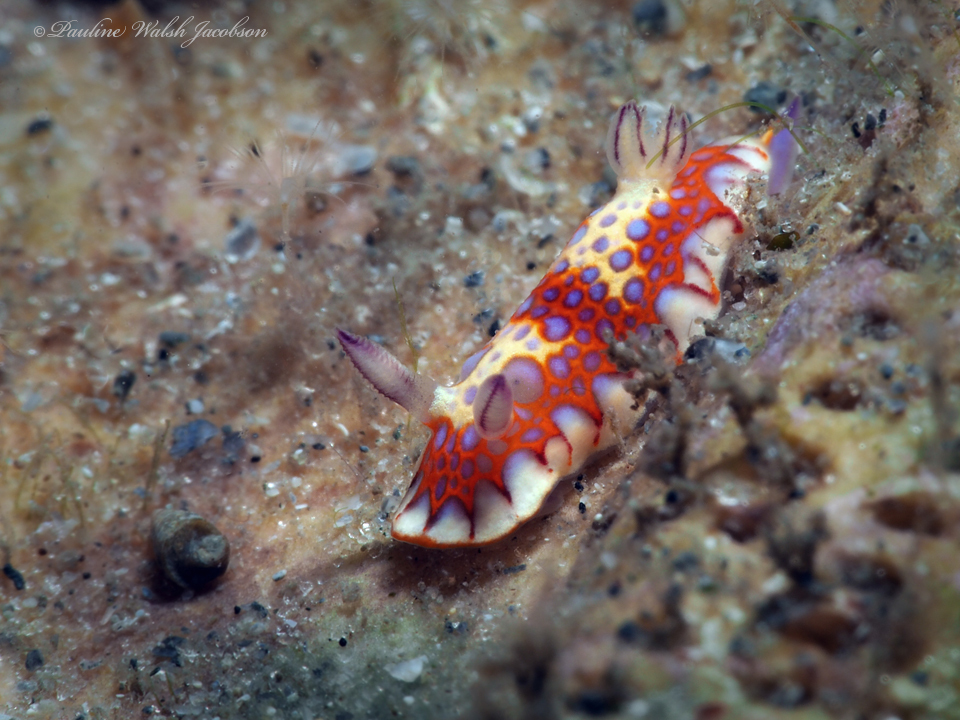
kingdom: Animalia
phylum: Mollusca
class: Gastropoda
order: Nudibranchia
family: Chromodorididae
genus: Felimida
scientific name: Felimida binza
